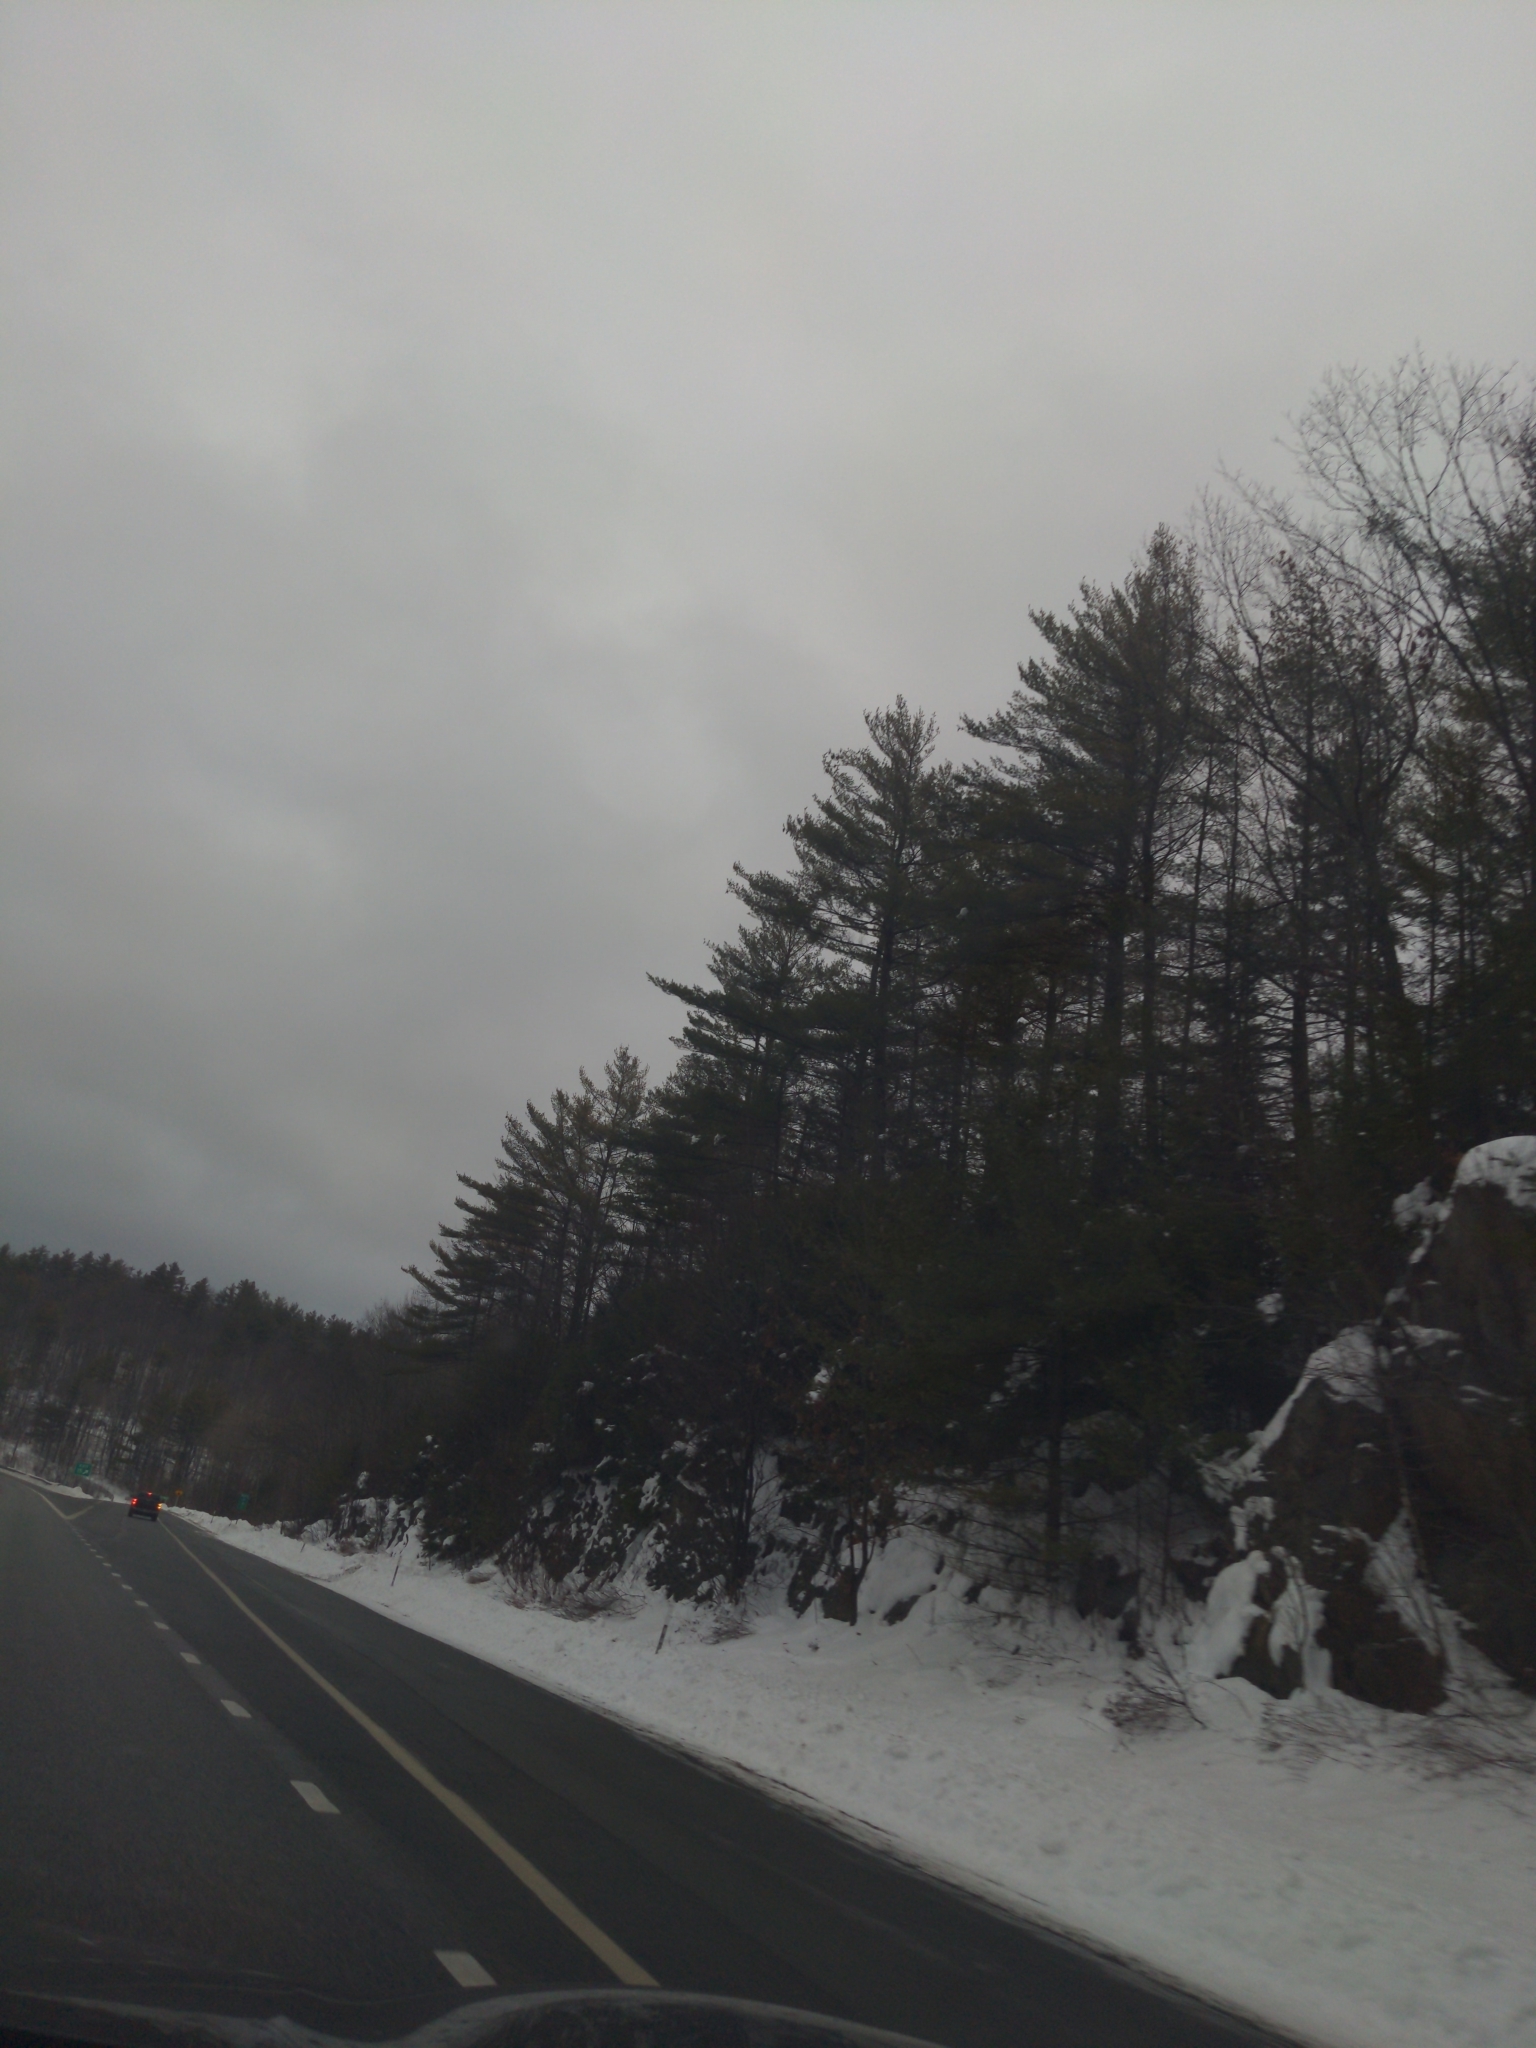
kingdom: Plantae
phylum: Tracheophyta
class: Pinopsida
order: Pinales
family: Pinaceae
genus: Pinus
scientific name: Pinus strobus
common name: Weymouth pine
